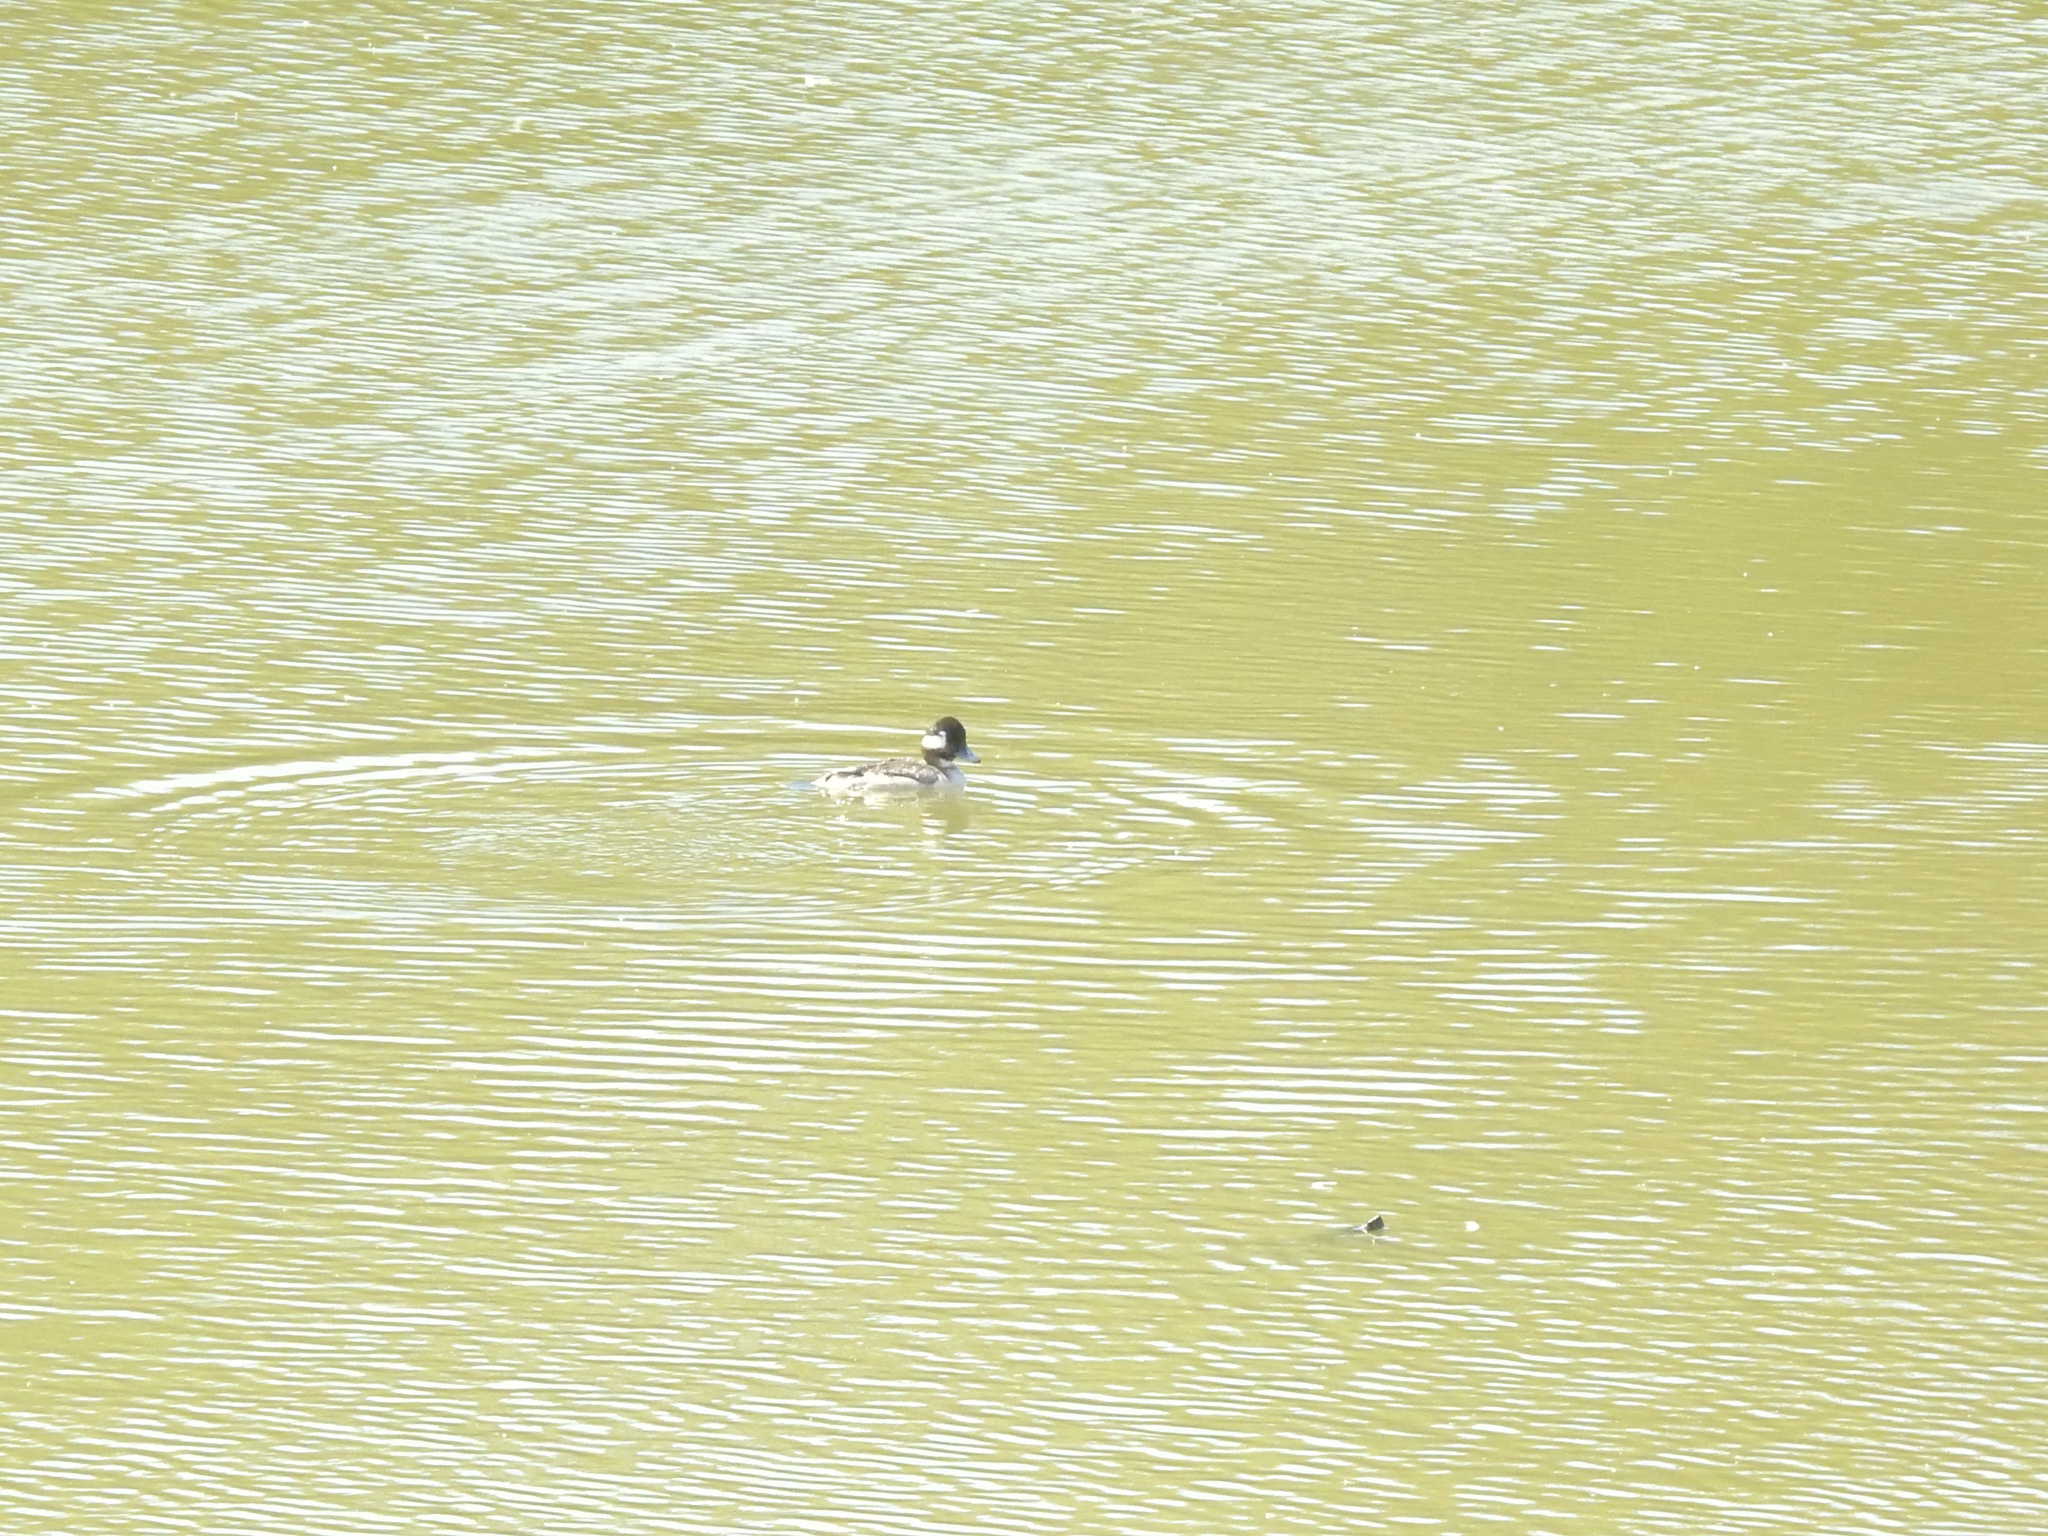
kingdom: Animalia
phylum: Chordata
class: Aves
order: Anseriformes
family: Anatidae
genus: Bucephala
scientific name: Bucephala albeola
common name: Bufflehead
